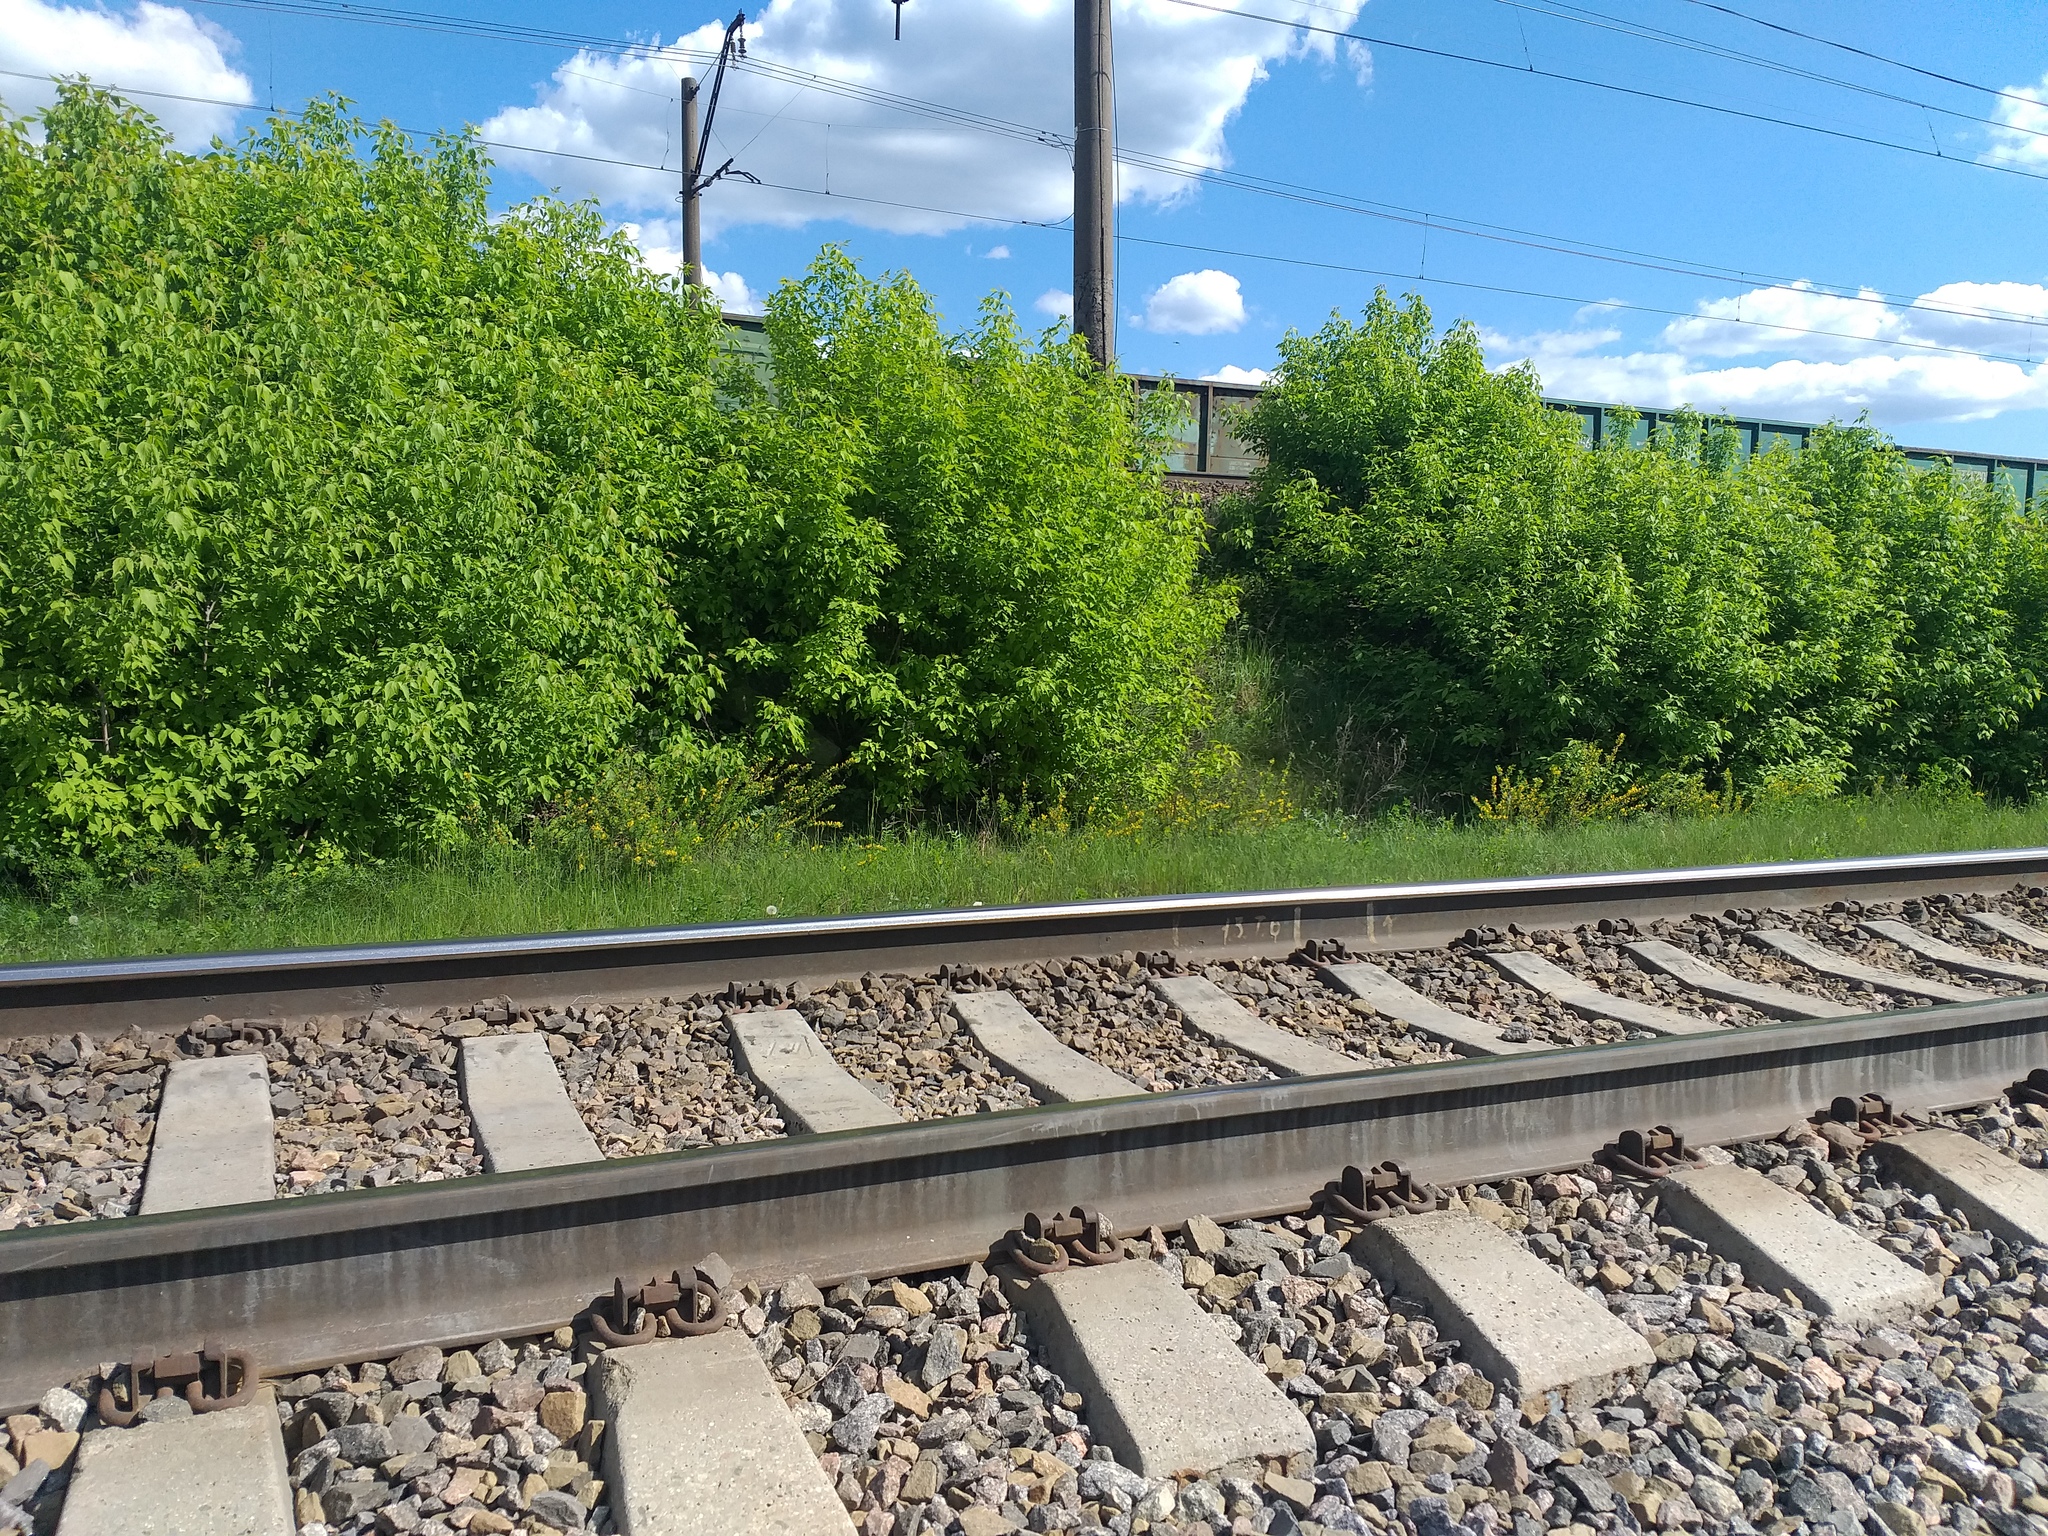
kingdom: Plantae
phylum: Tracheophyta
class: Magnoliopsida
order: Sapindales
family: Sapindaceae
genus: Acer
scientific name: Acer negundo
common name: Ashleaf maple
